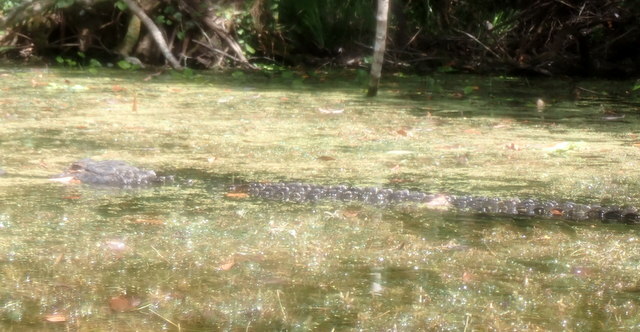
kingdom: Animalia
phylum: Chordata
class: Crocodylia
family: Alligatoridae
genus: Alligator
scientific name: Alligator mississippiensis
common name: American alligator
